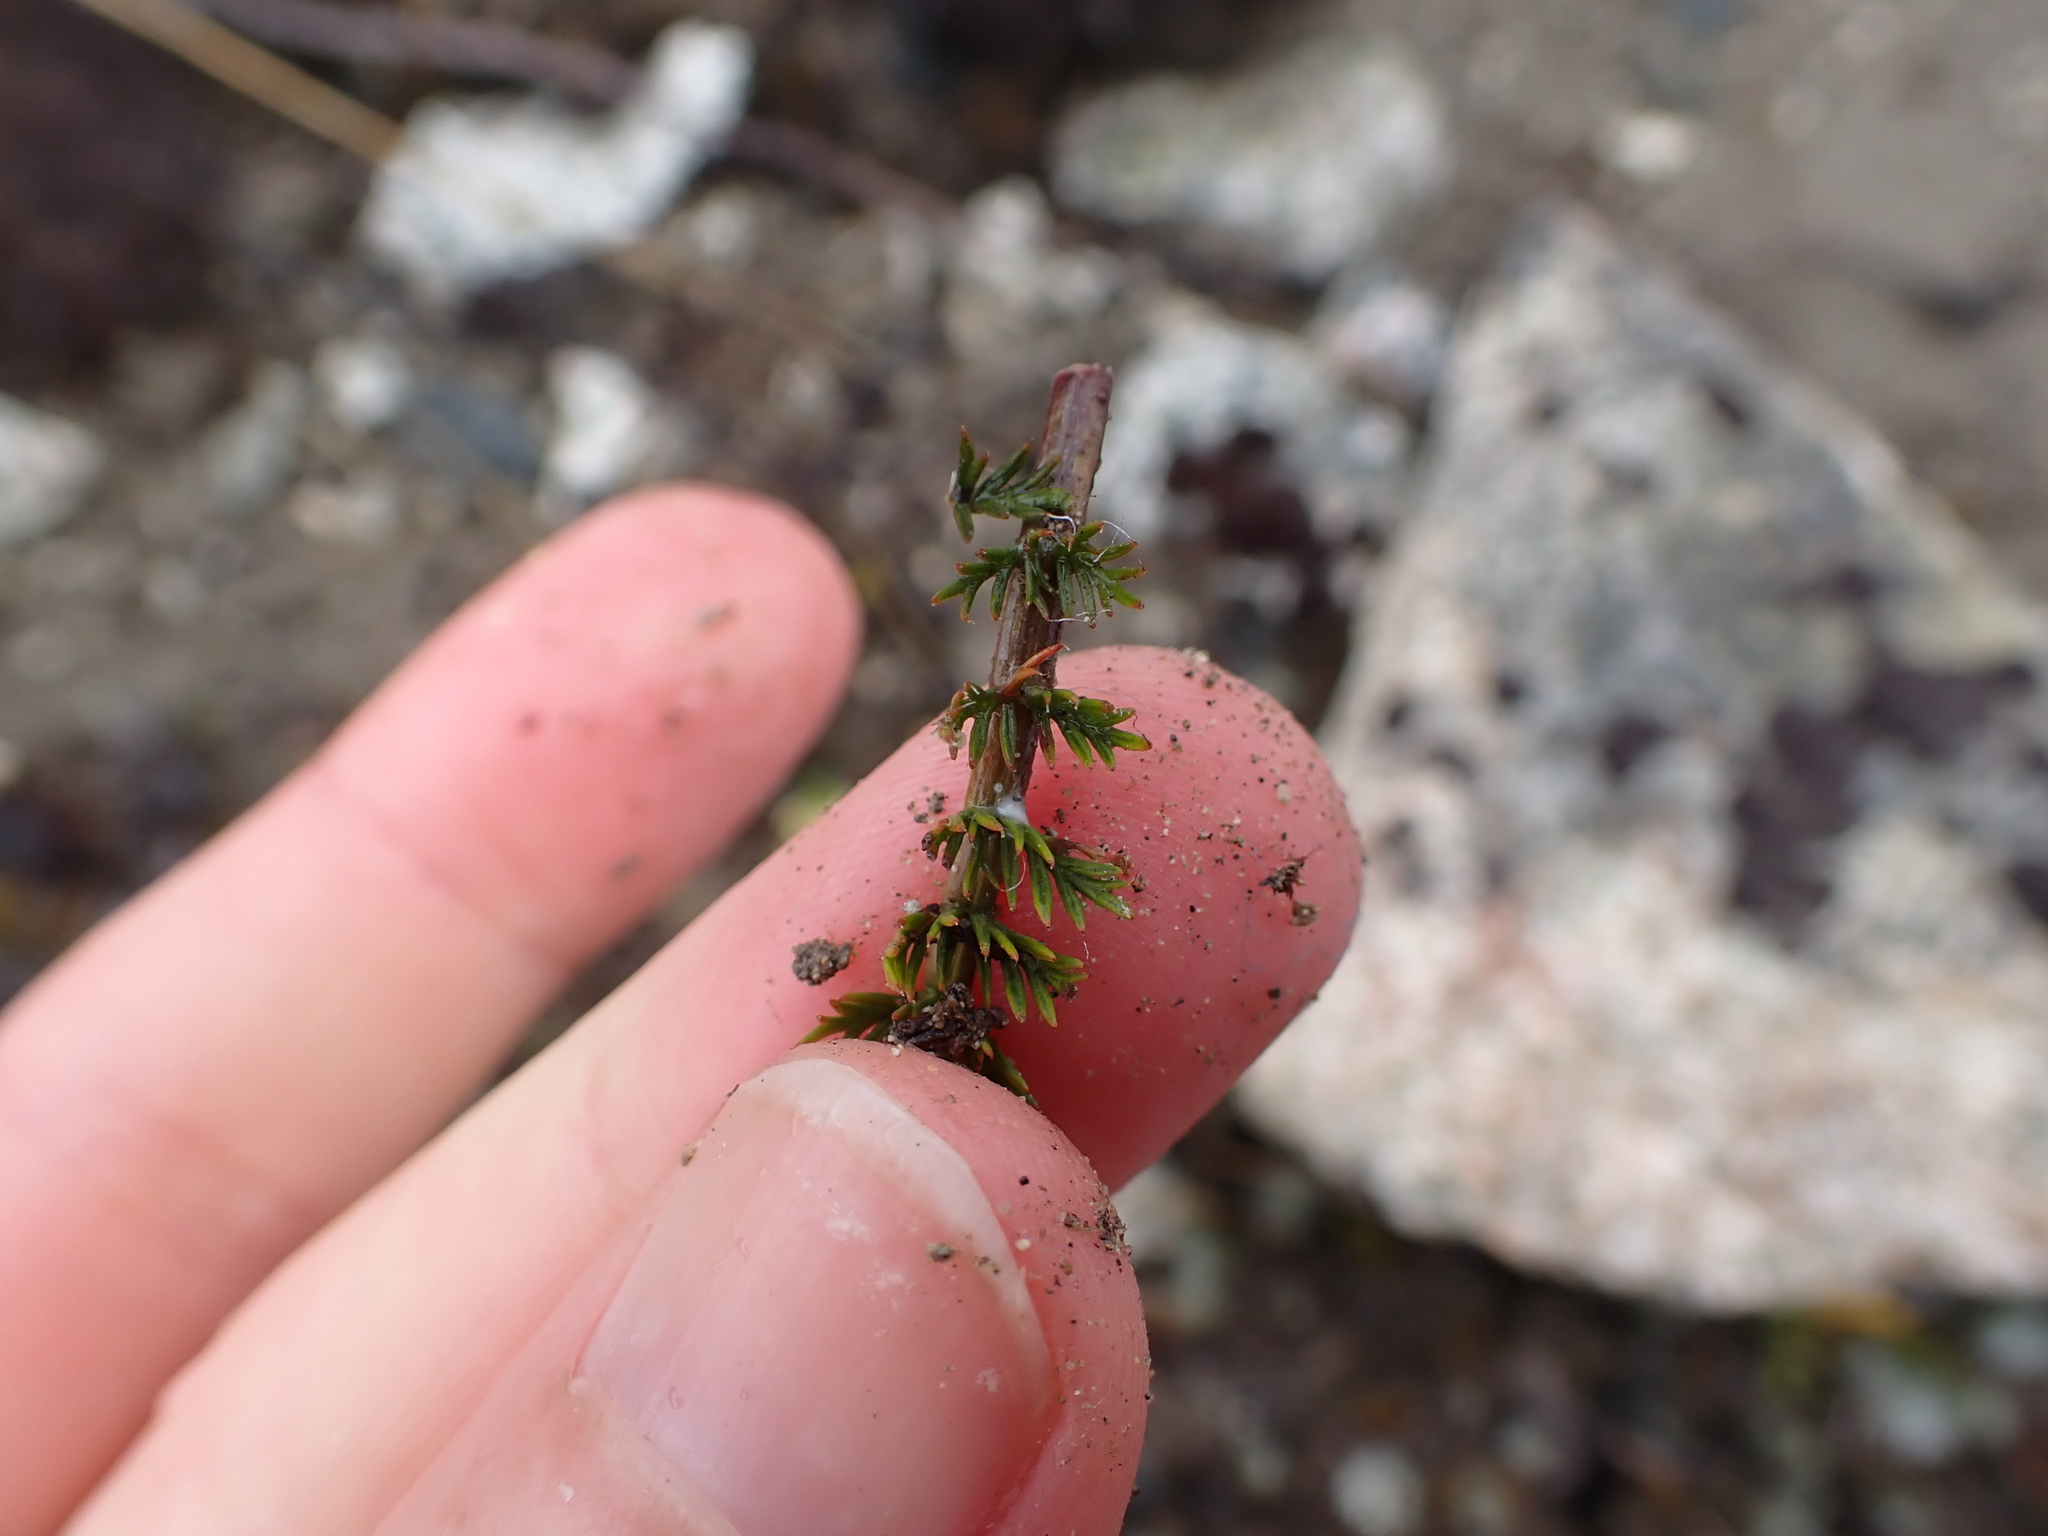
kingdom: Plantae
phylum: Tracheophyta
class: Magnoliopsida
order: Apiales
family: Apiaceae
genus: Anisotome
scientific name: Anisotome flexuosa
